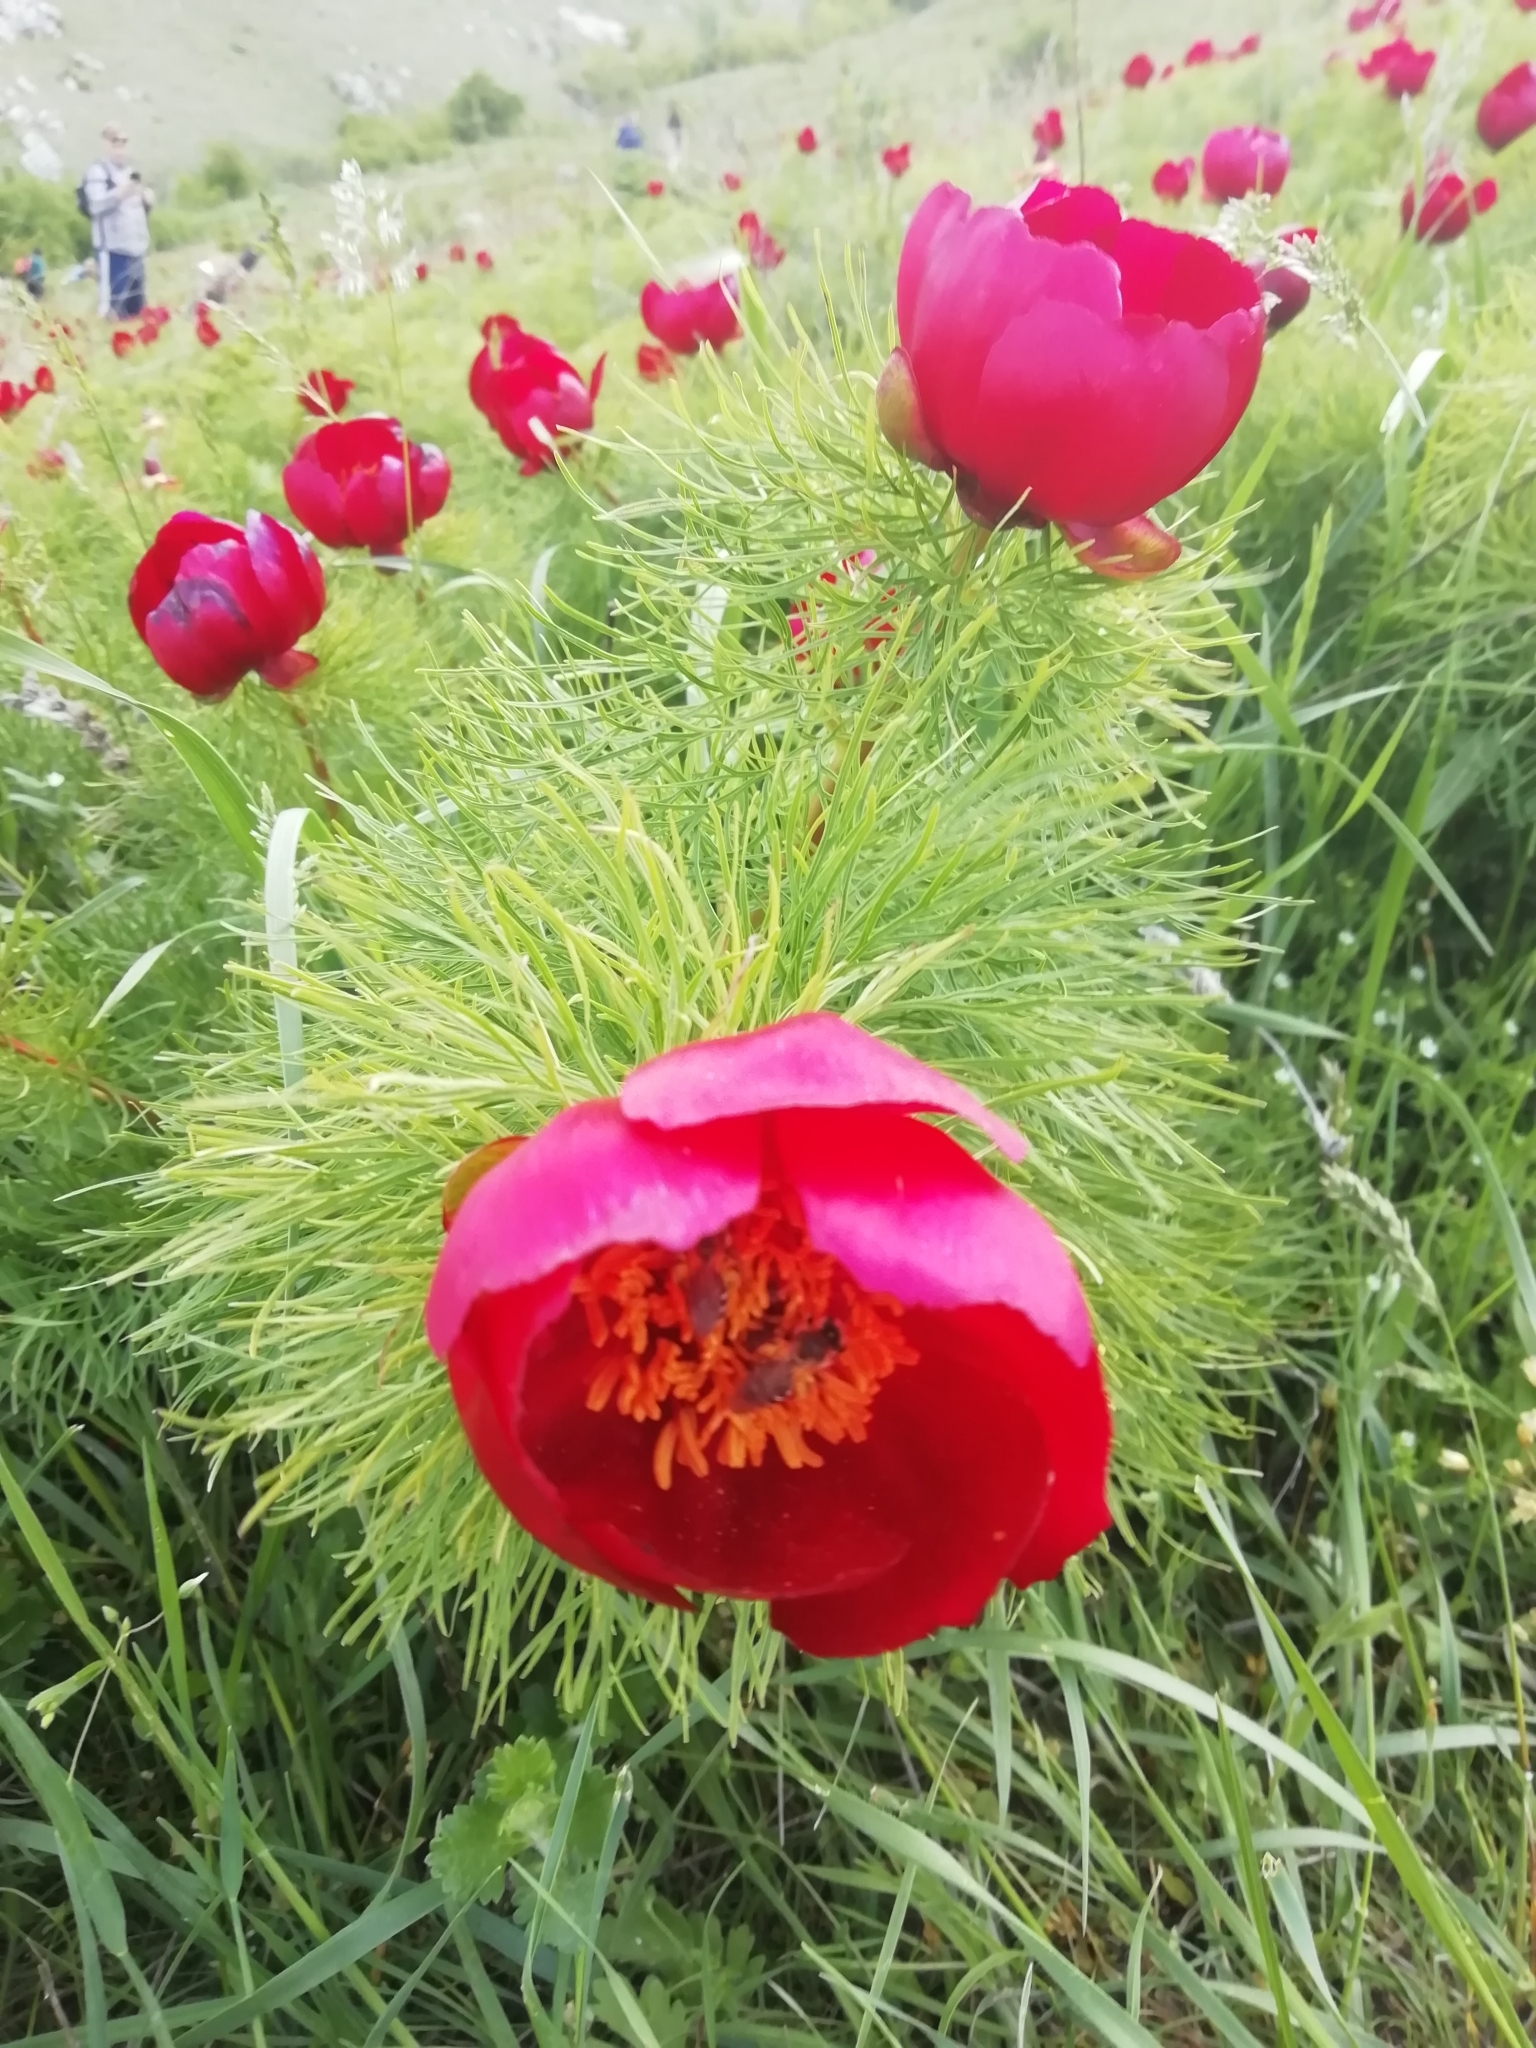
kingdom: Plantae
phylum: Tracheophyta
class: Magnoliopsida
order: Saxifragales
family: Paeoniaceae
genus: Paeonia
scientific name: Paeonia tenuifolia
